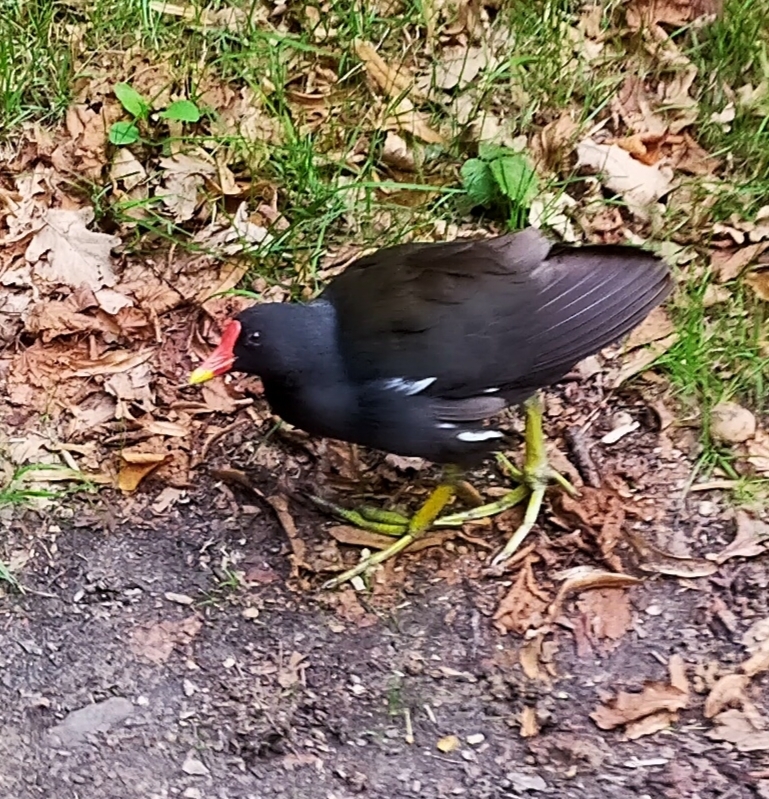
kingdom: Animalia
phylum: Chordata
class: Aves
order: Gruiformes
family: Rallidae
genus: Gallinula
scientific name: Gallinula chloropus
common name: Common moorhen
